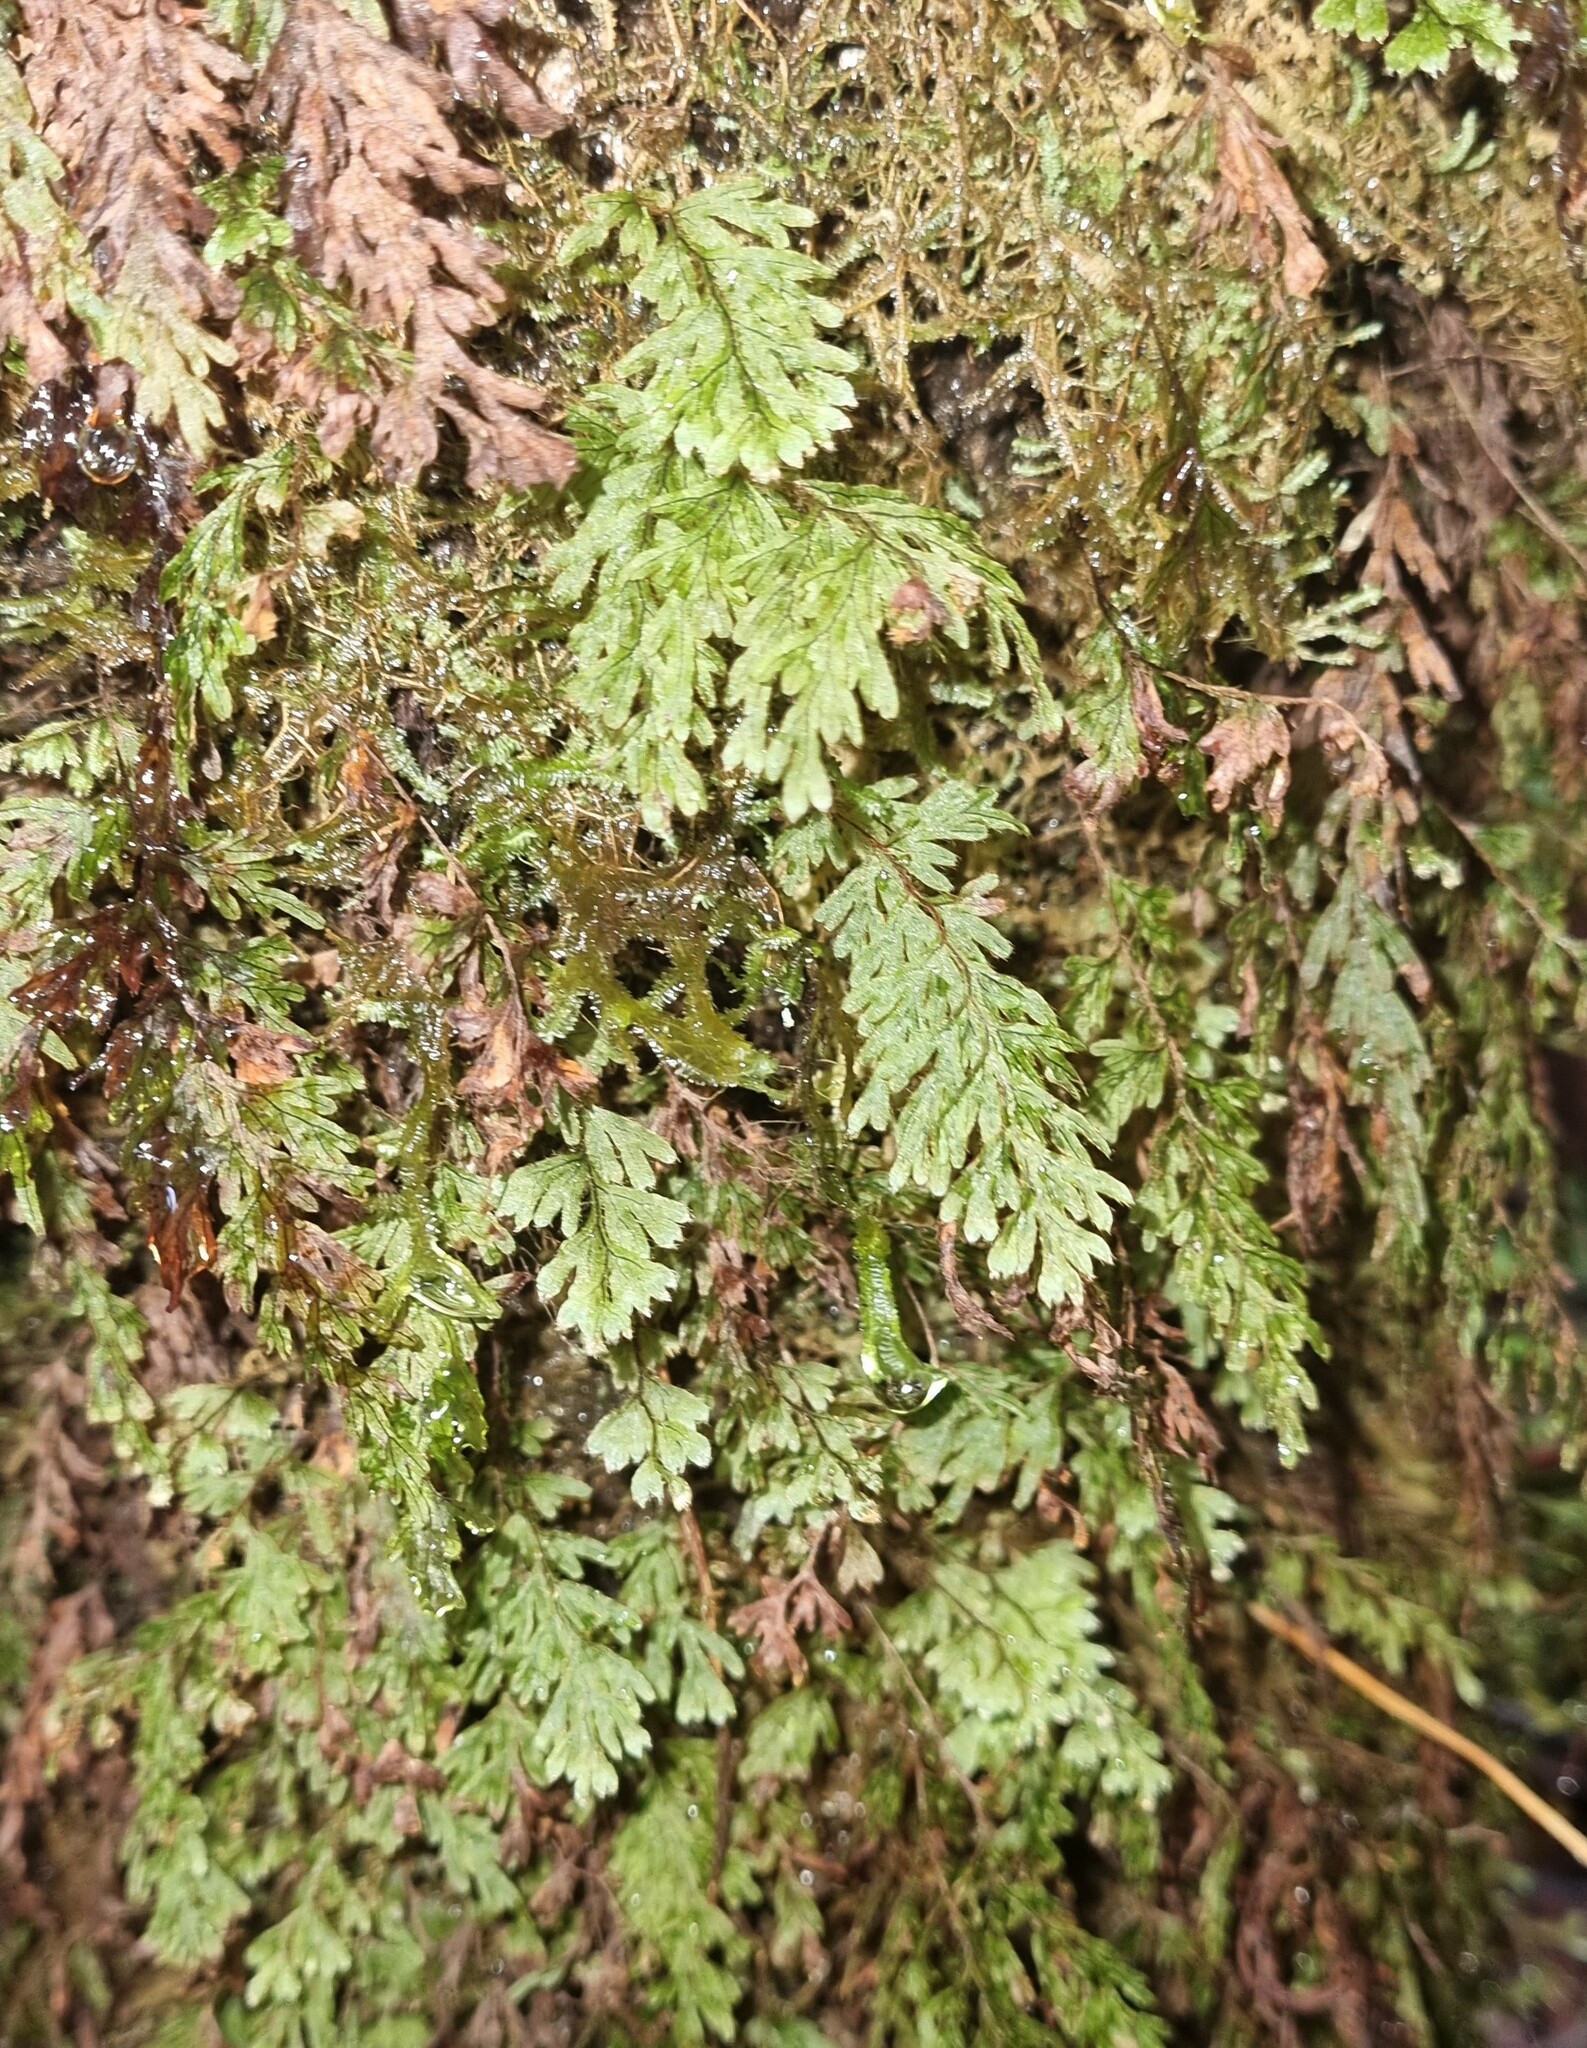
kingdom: Plantae
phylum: Tracheophyta
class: Polypodiopsida
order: Hymenophyllales
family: Hymenophyllaceae
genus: Hymenophyllum
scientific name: Hymenophyllum lanceolatum
